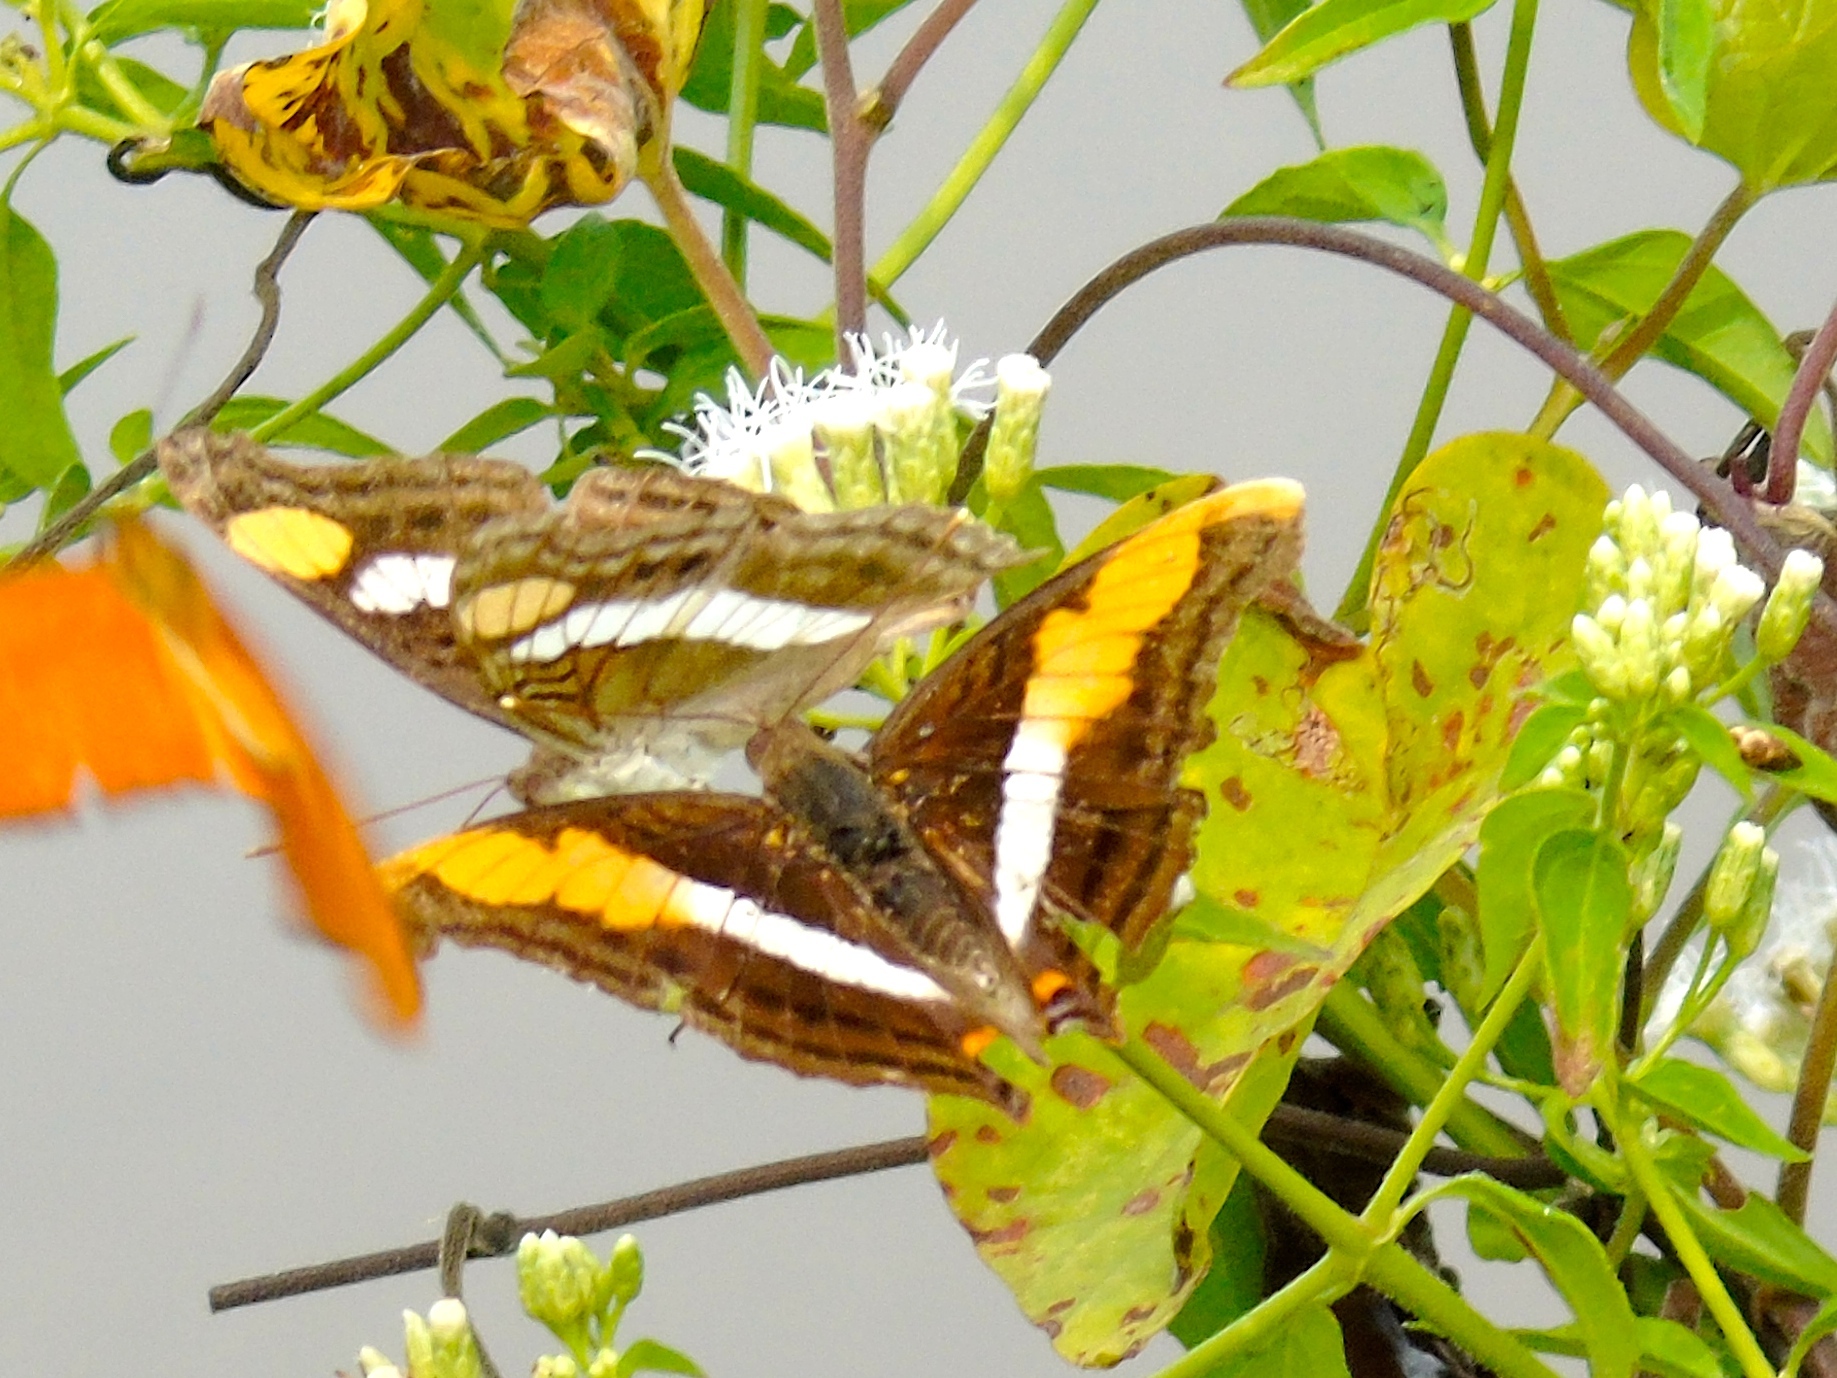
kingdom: Animalia
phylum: Arthropoda
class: Insecta
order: Lepidoptera
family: Nymphalidae
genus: Doxocopa
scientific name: Doxocopa laure
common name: Silver emperor
